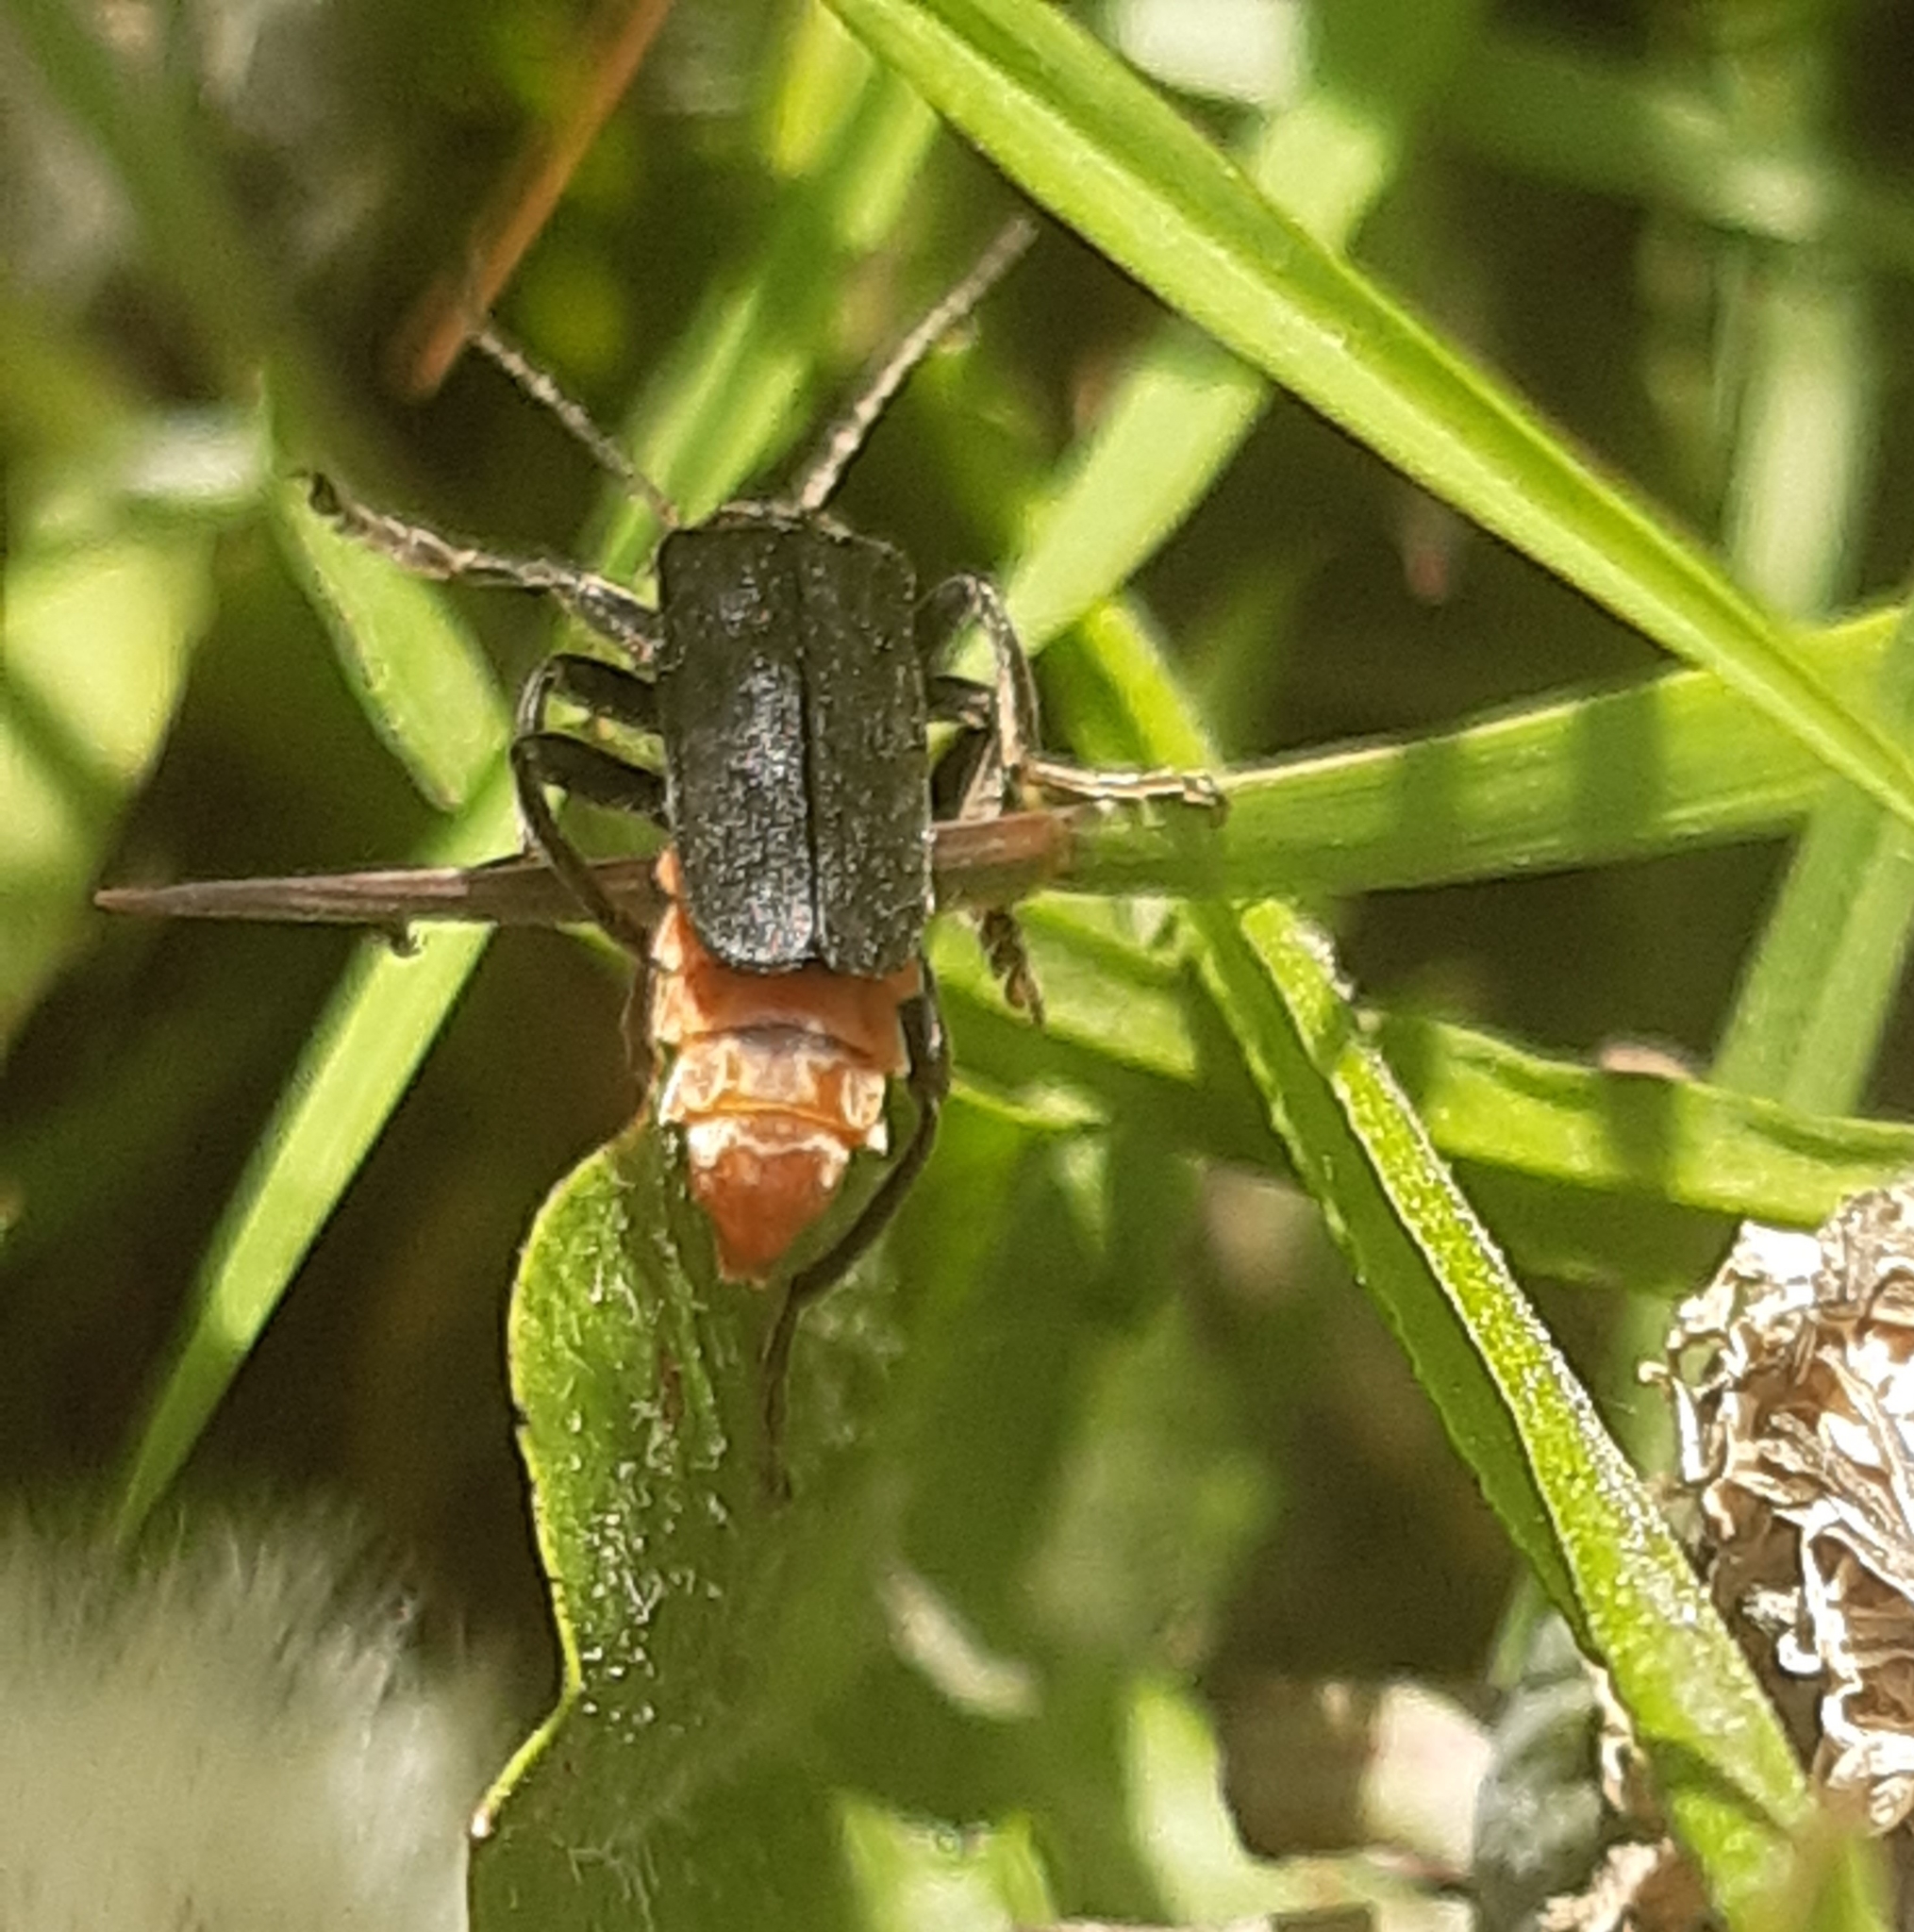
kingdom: Animalia
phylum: Arthropoda
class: Insecta
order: Coleoptera
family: Cantharidae
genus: Cantharis
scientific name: Cantharis fusca
